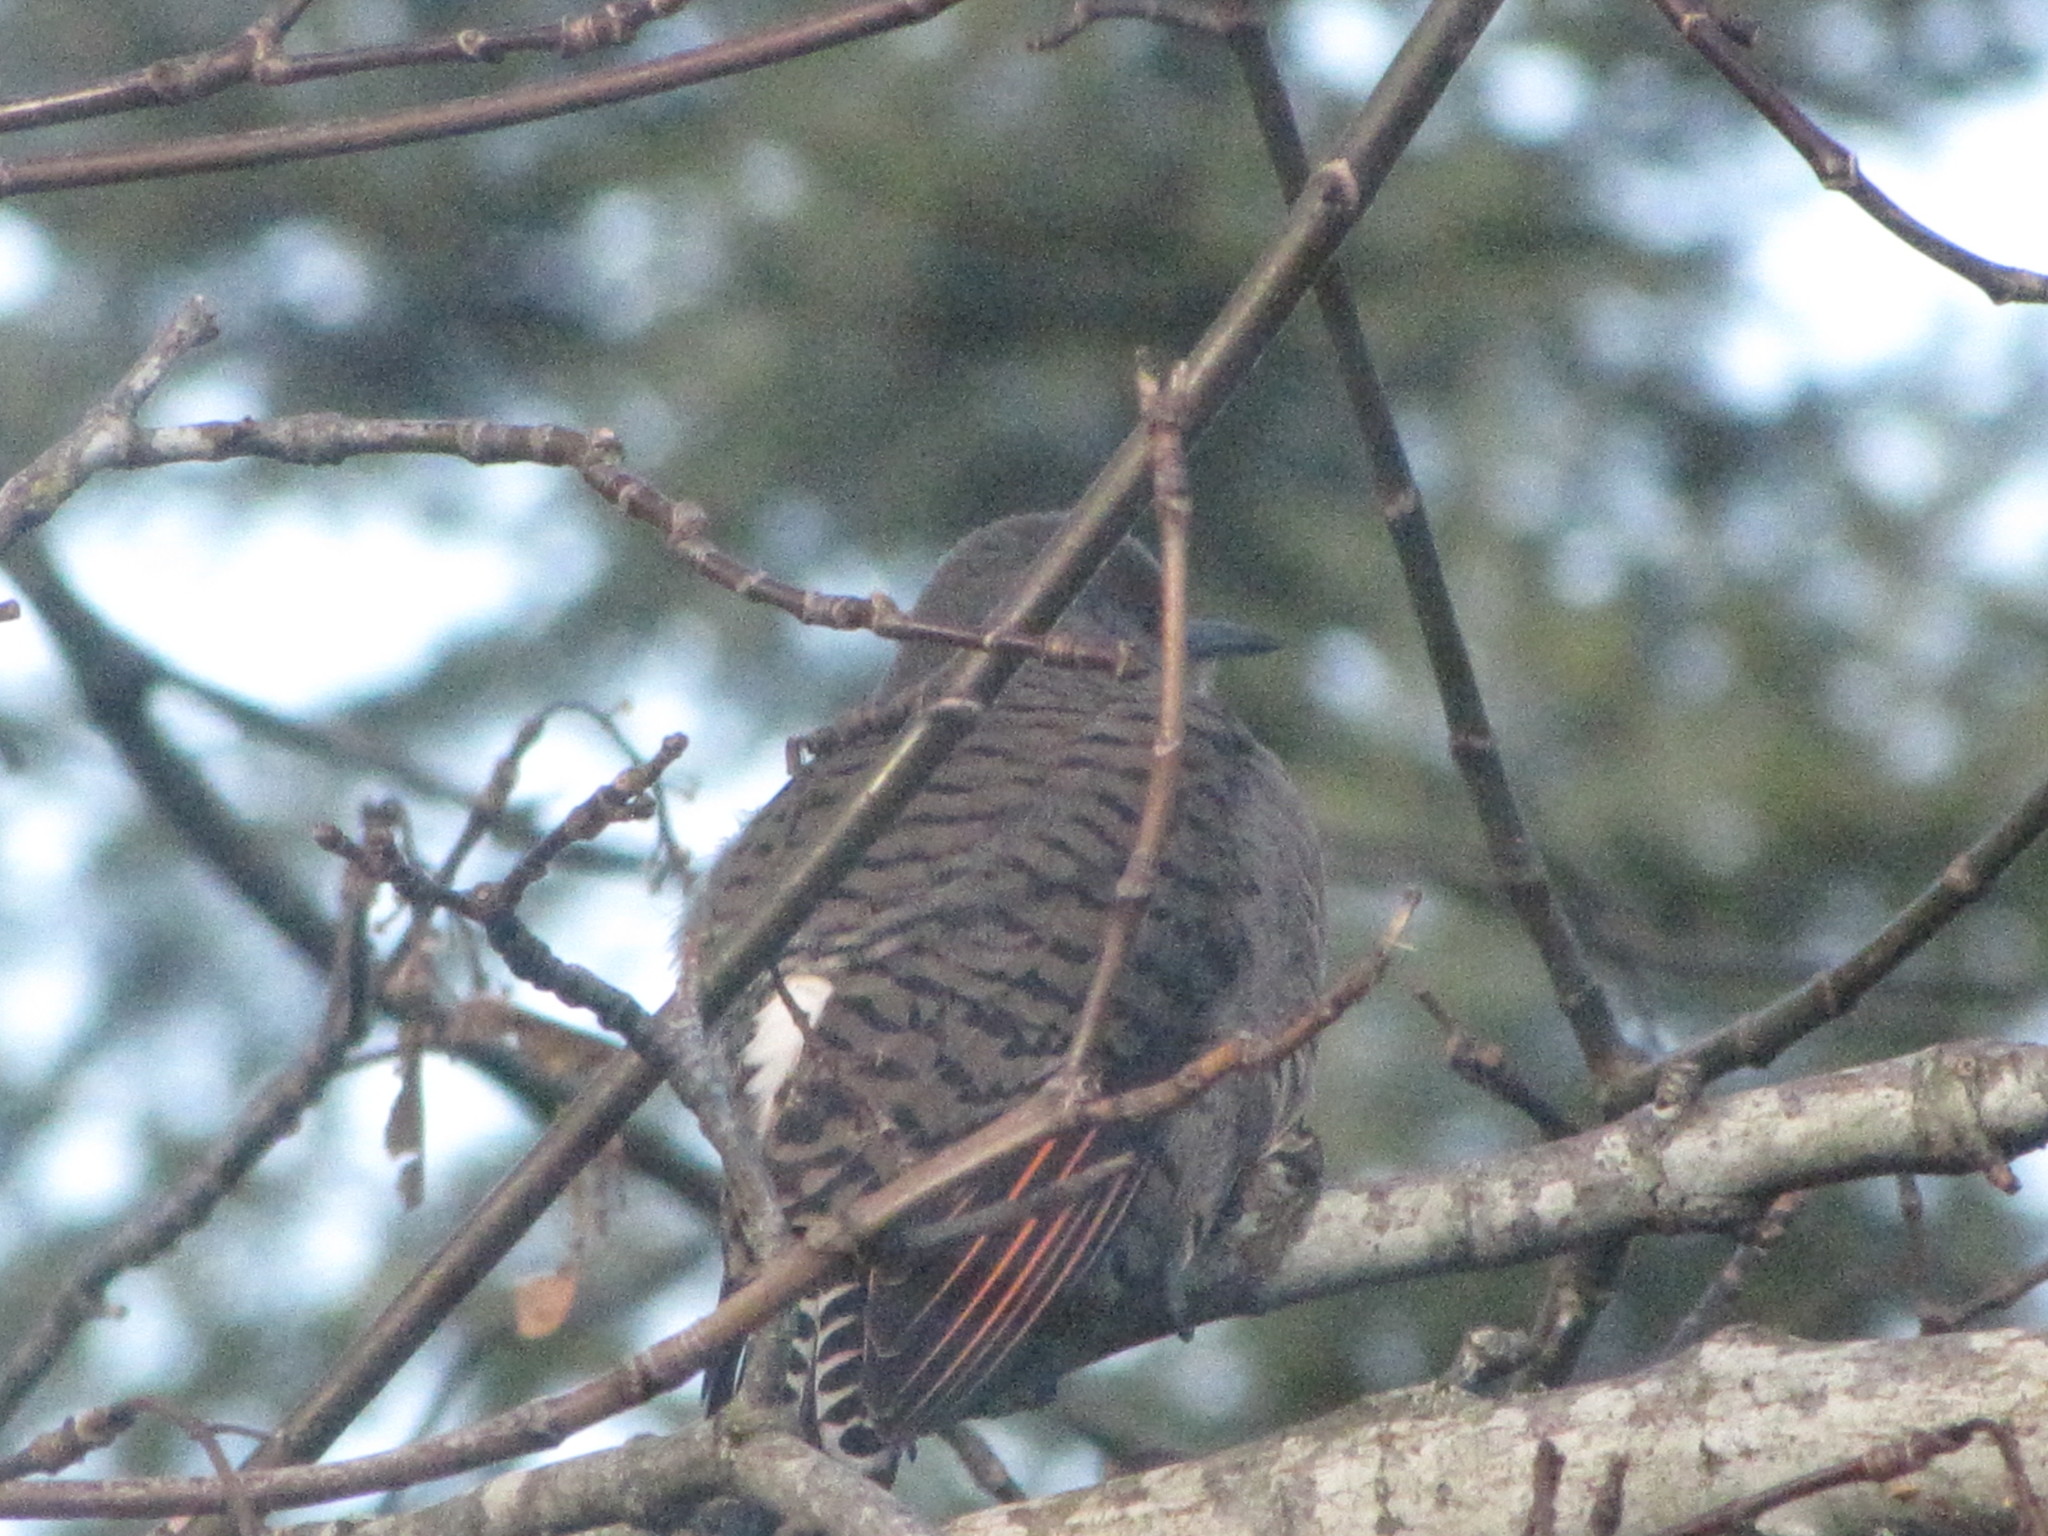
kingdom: Animalia
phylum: Chordata
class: Aves
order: Piciformes
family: Picidae
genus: Colaptes
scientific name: Colaptes auratus
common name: Northern flicker
